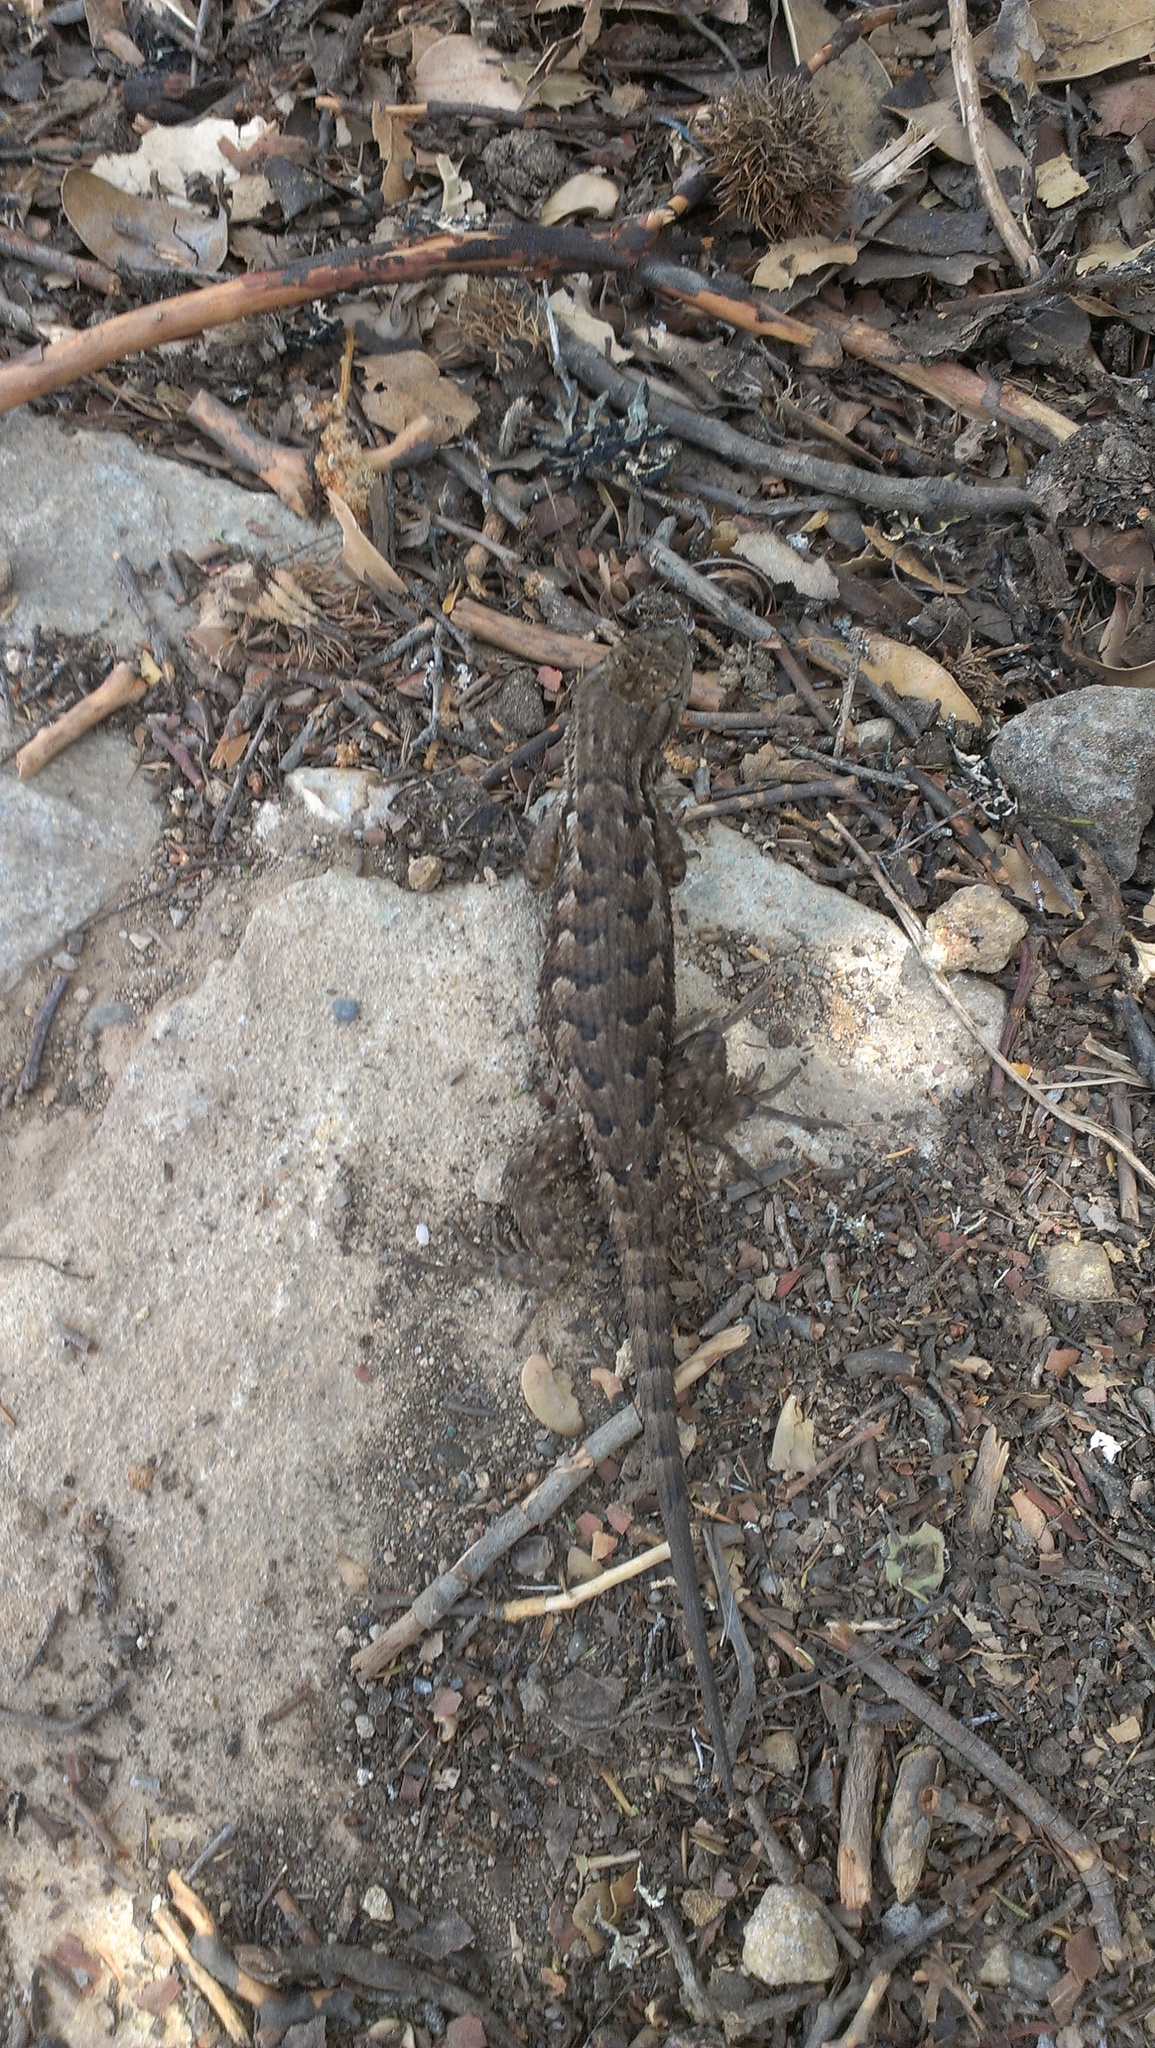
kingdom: Animalia
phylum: Chordata
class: Squamata
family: Phrynosomatidae
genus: Sceloporus
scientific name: Sceloporus occidentalis
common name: Western fence lizard
